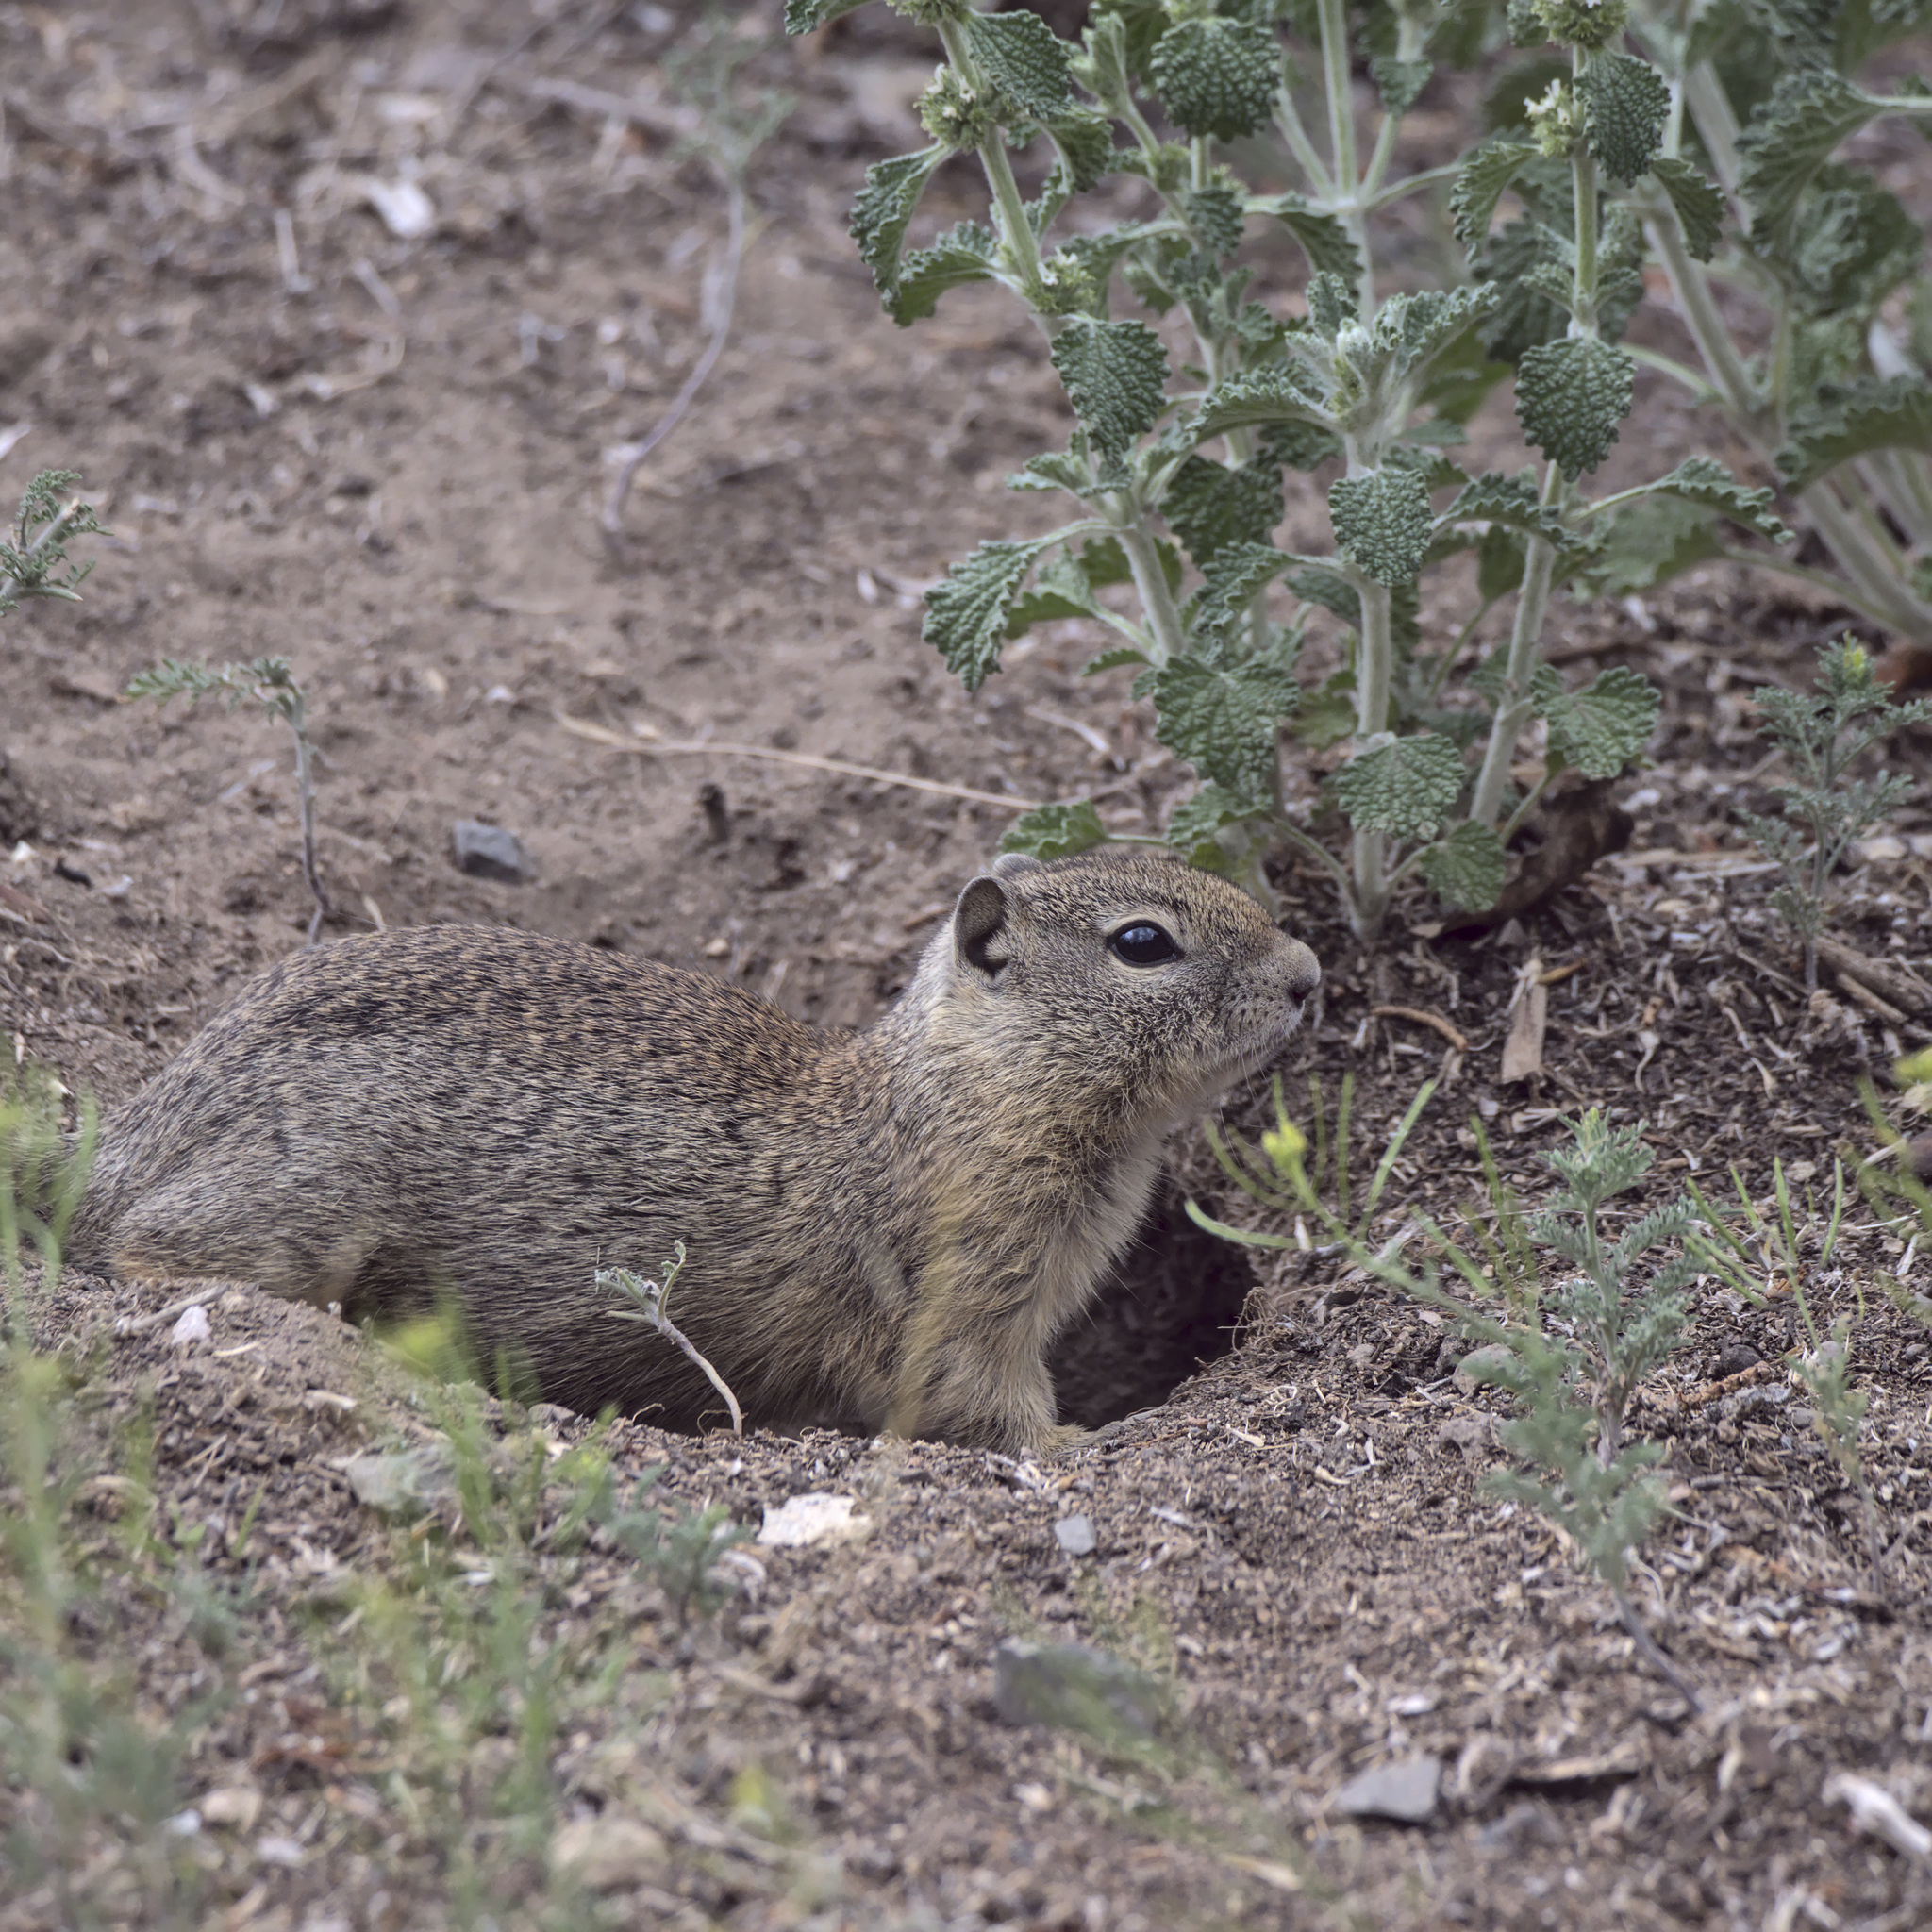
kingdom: Animalia
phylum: Chordata
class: Mammalia
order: Rodentia
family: Sciuridae
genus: Urocitellus
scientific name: Urocitellus beldingi
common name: Belding's ground squirrel
